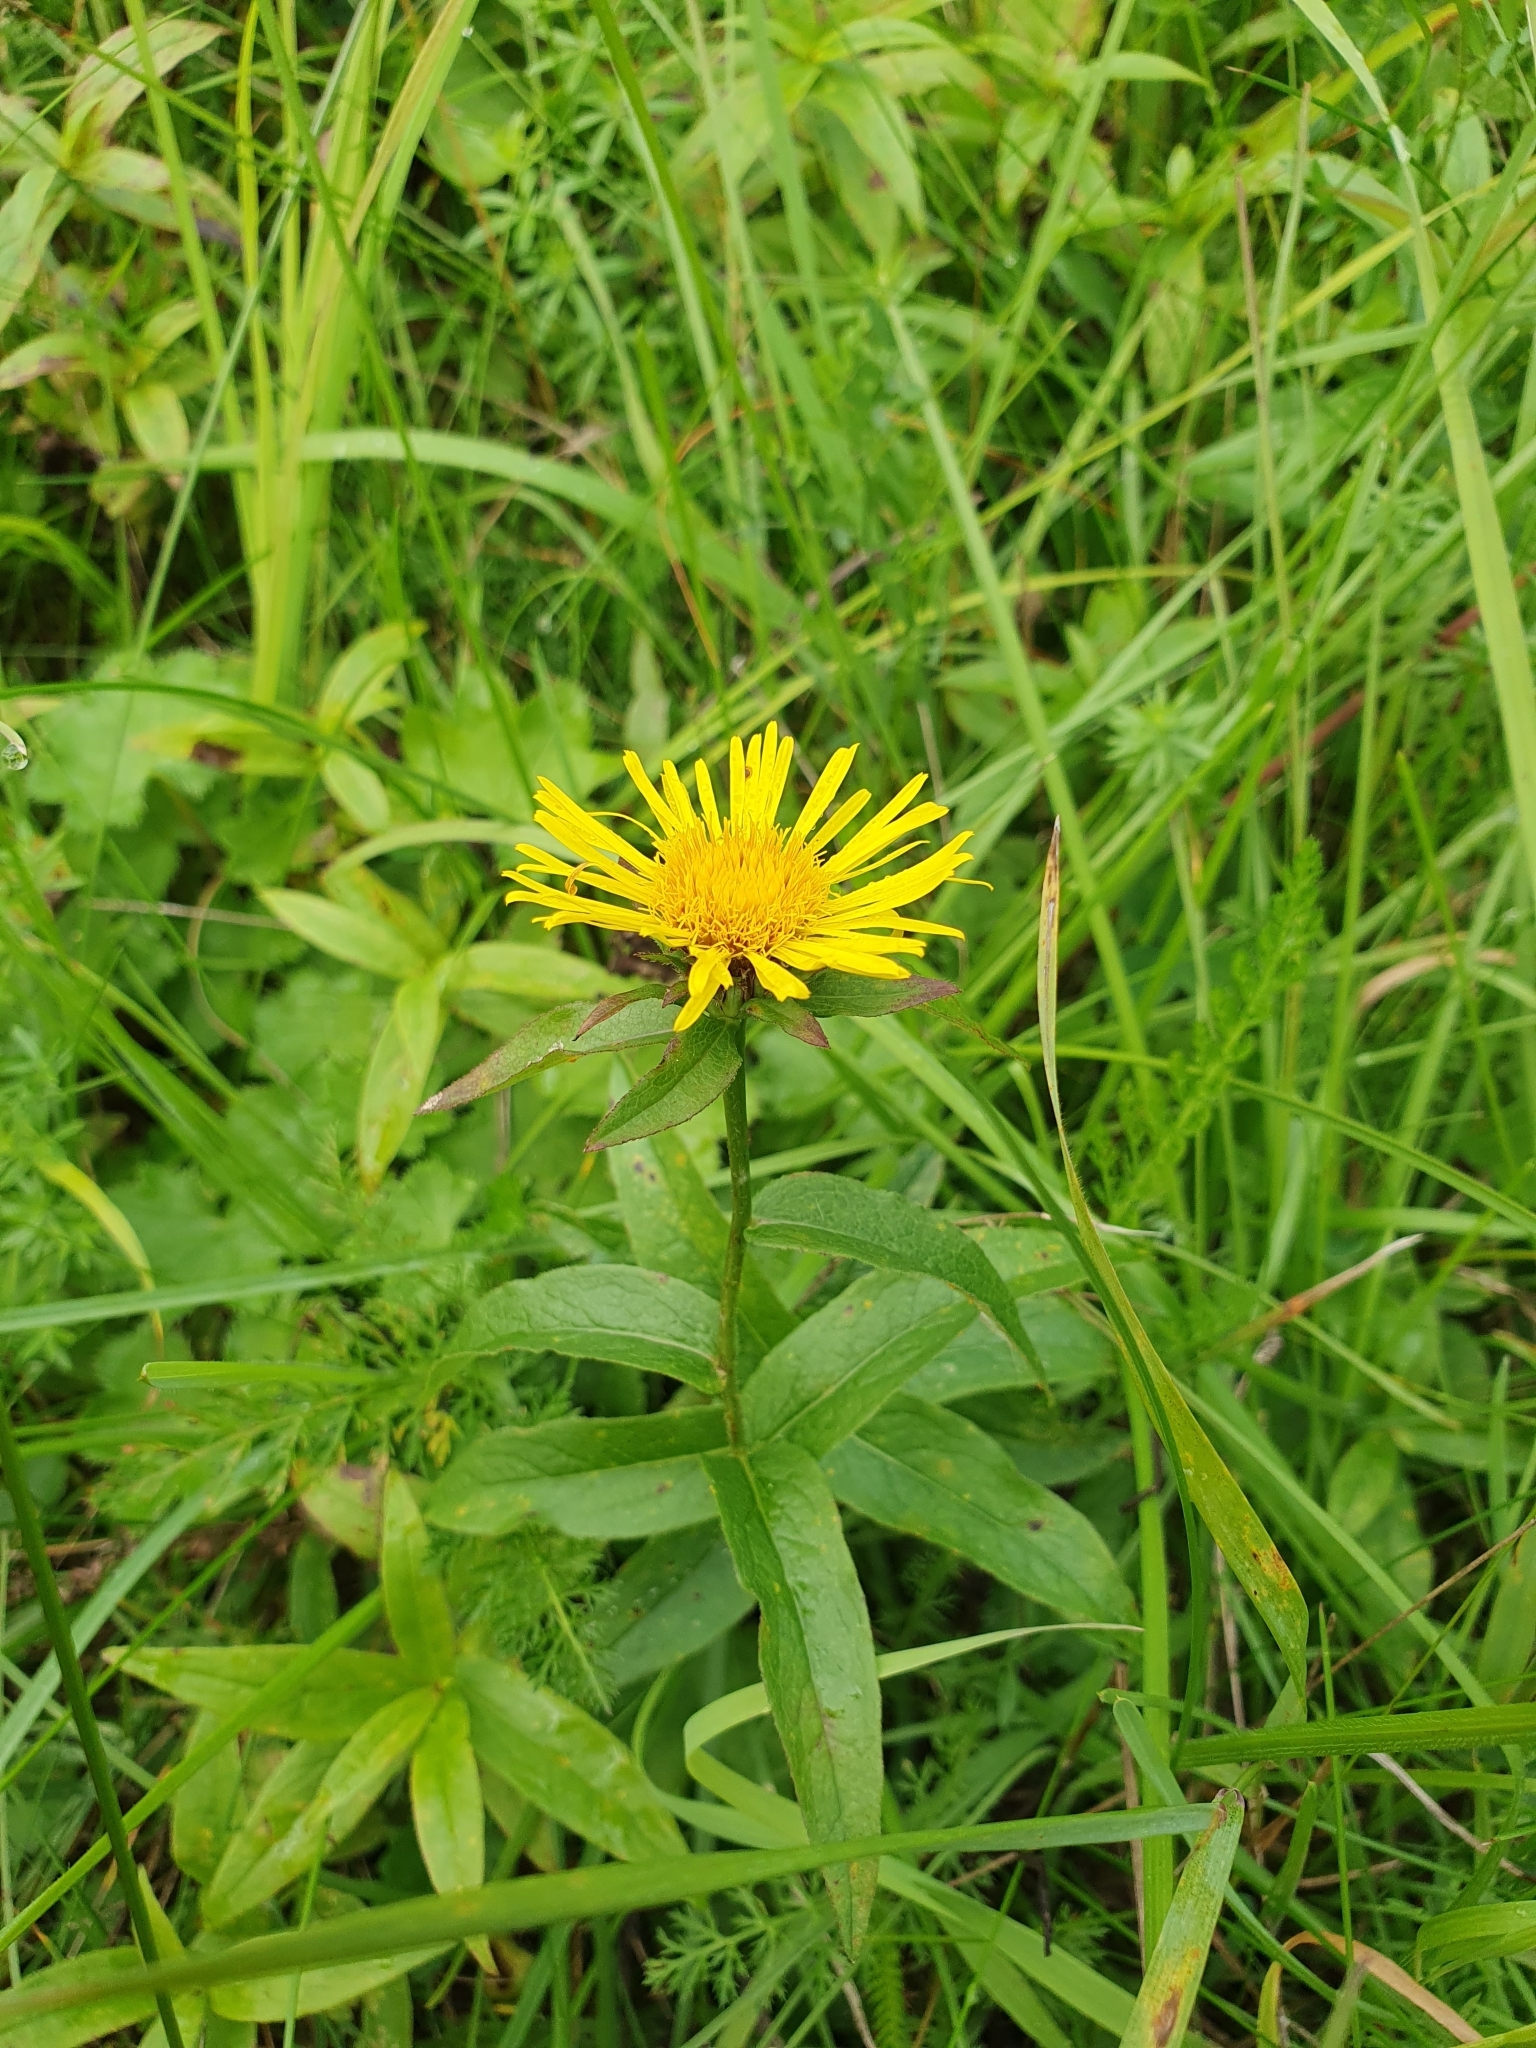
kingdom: Plantae
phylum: Tracheophyta
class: Magnoliopsida
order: Asterales
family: Asteraceae
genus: Pentanema
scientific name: Pentanema salicinum
